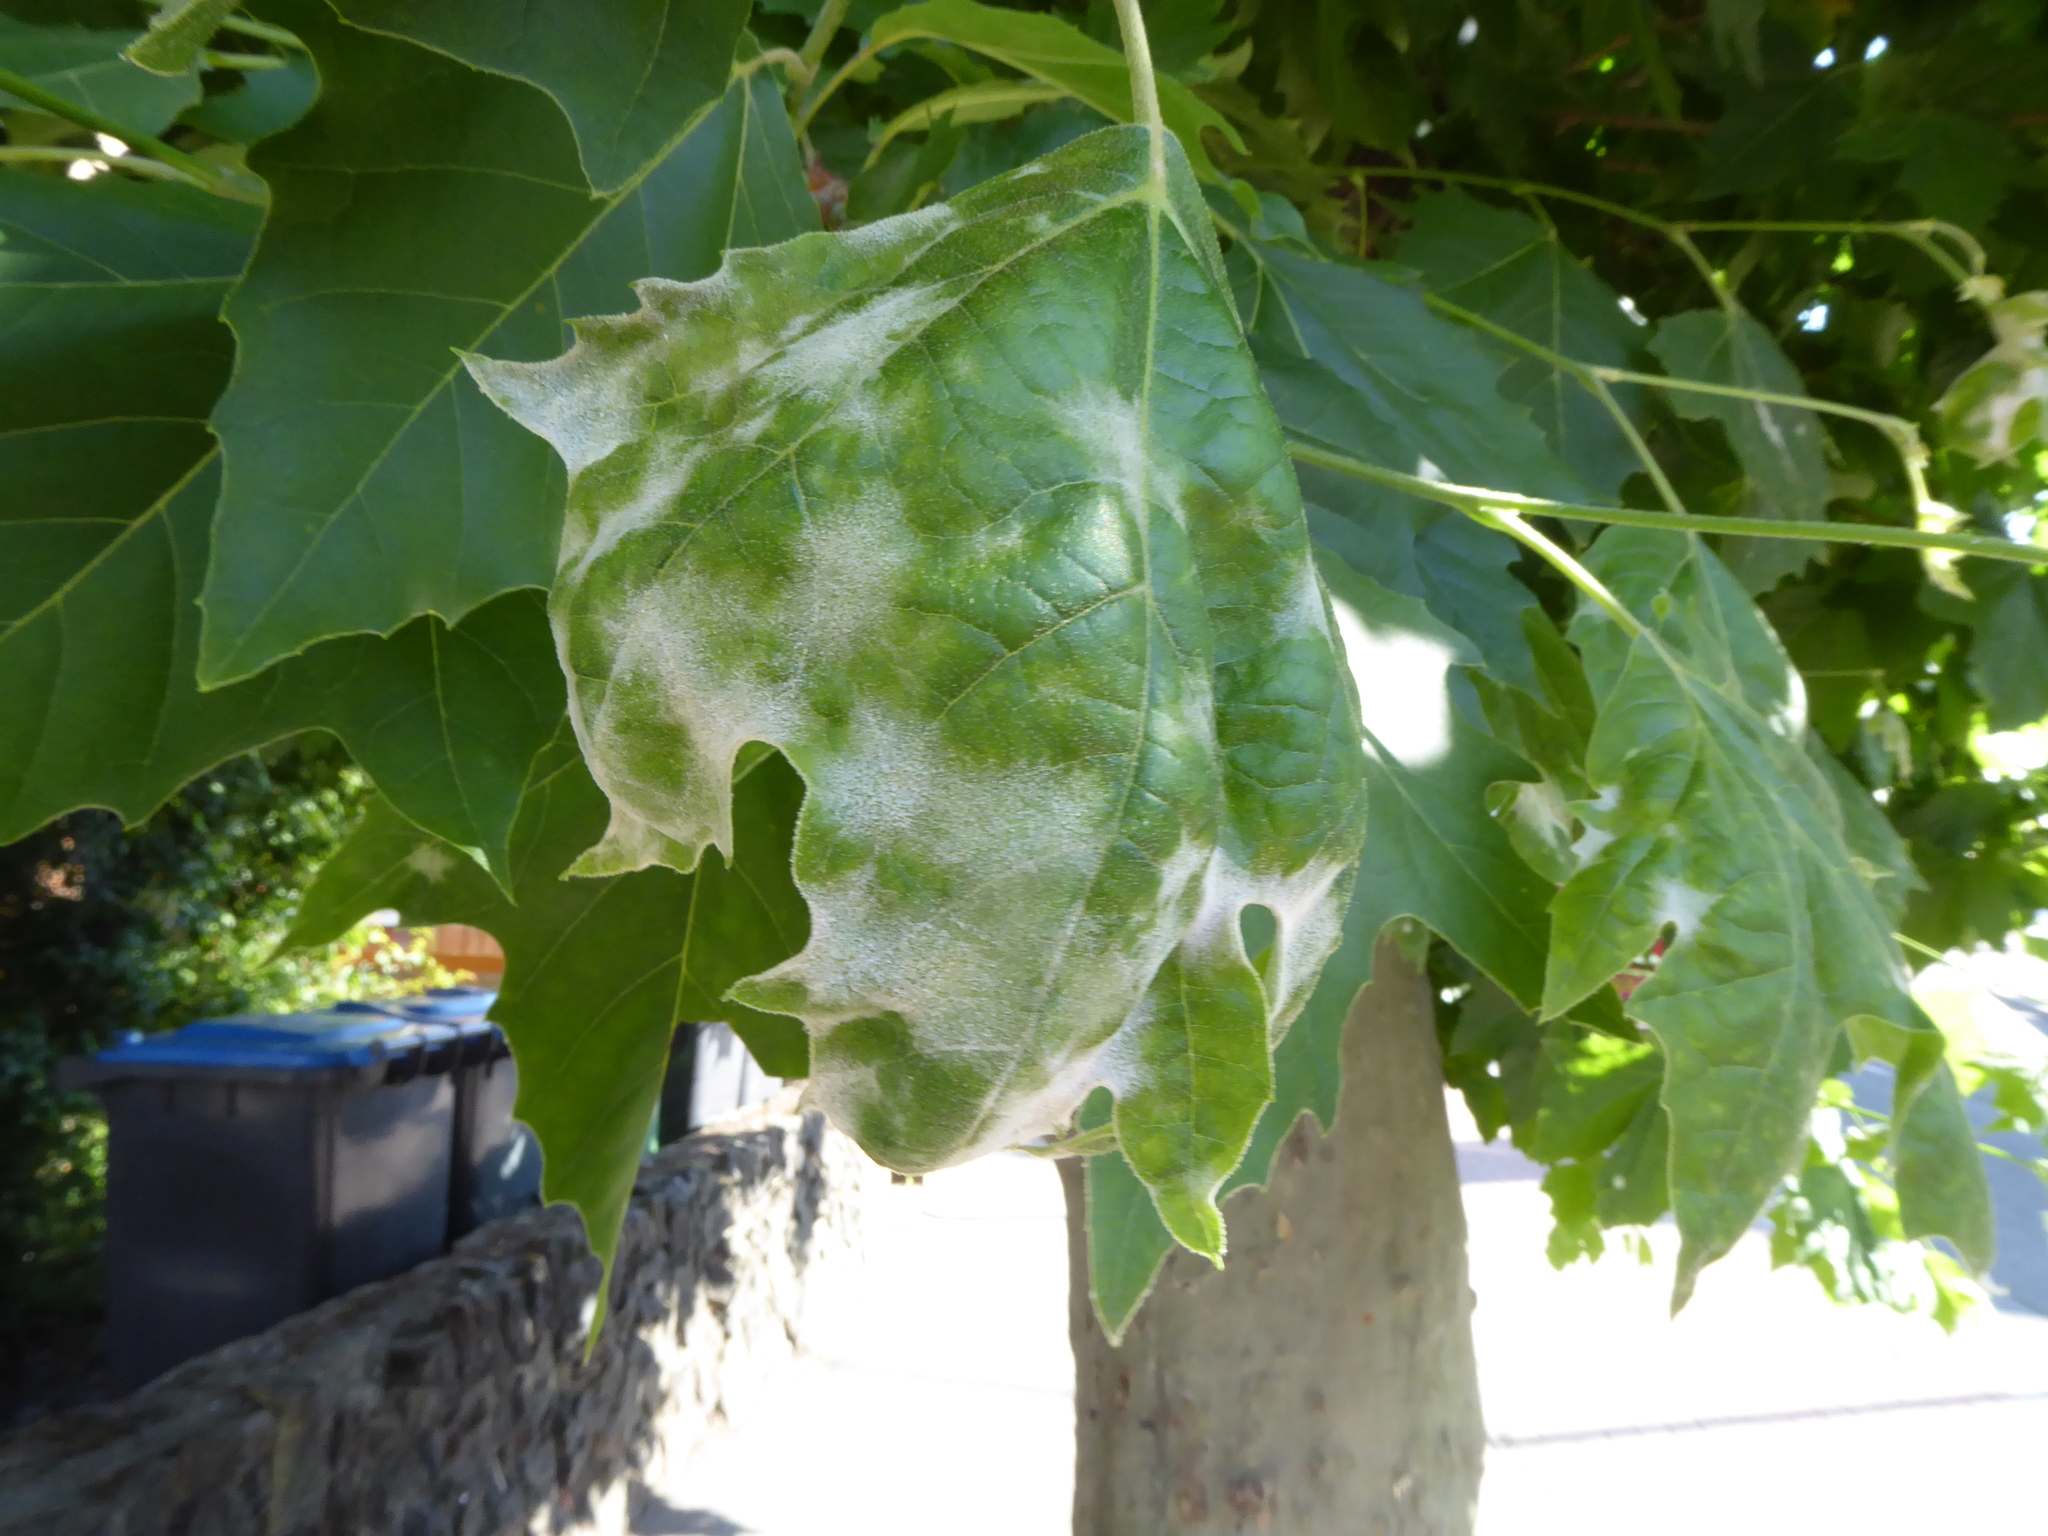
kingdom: Fungi
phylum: Ascomycota
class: Leotiomycetes
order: Helotiales
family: Erysiphaceae
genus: Erysiphe
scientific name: Erysiphe platani
